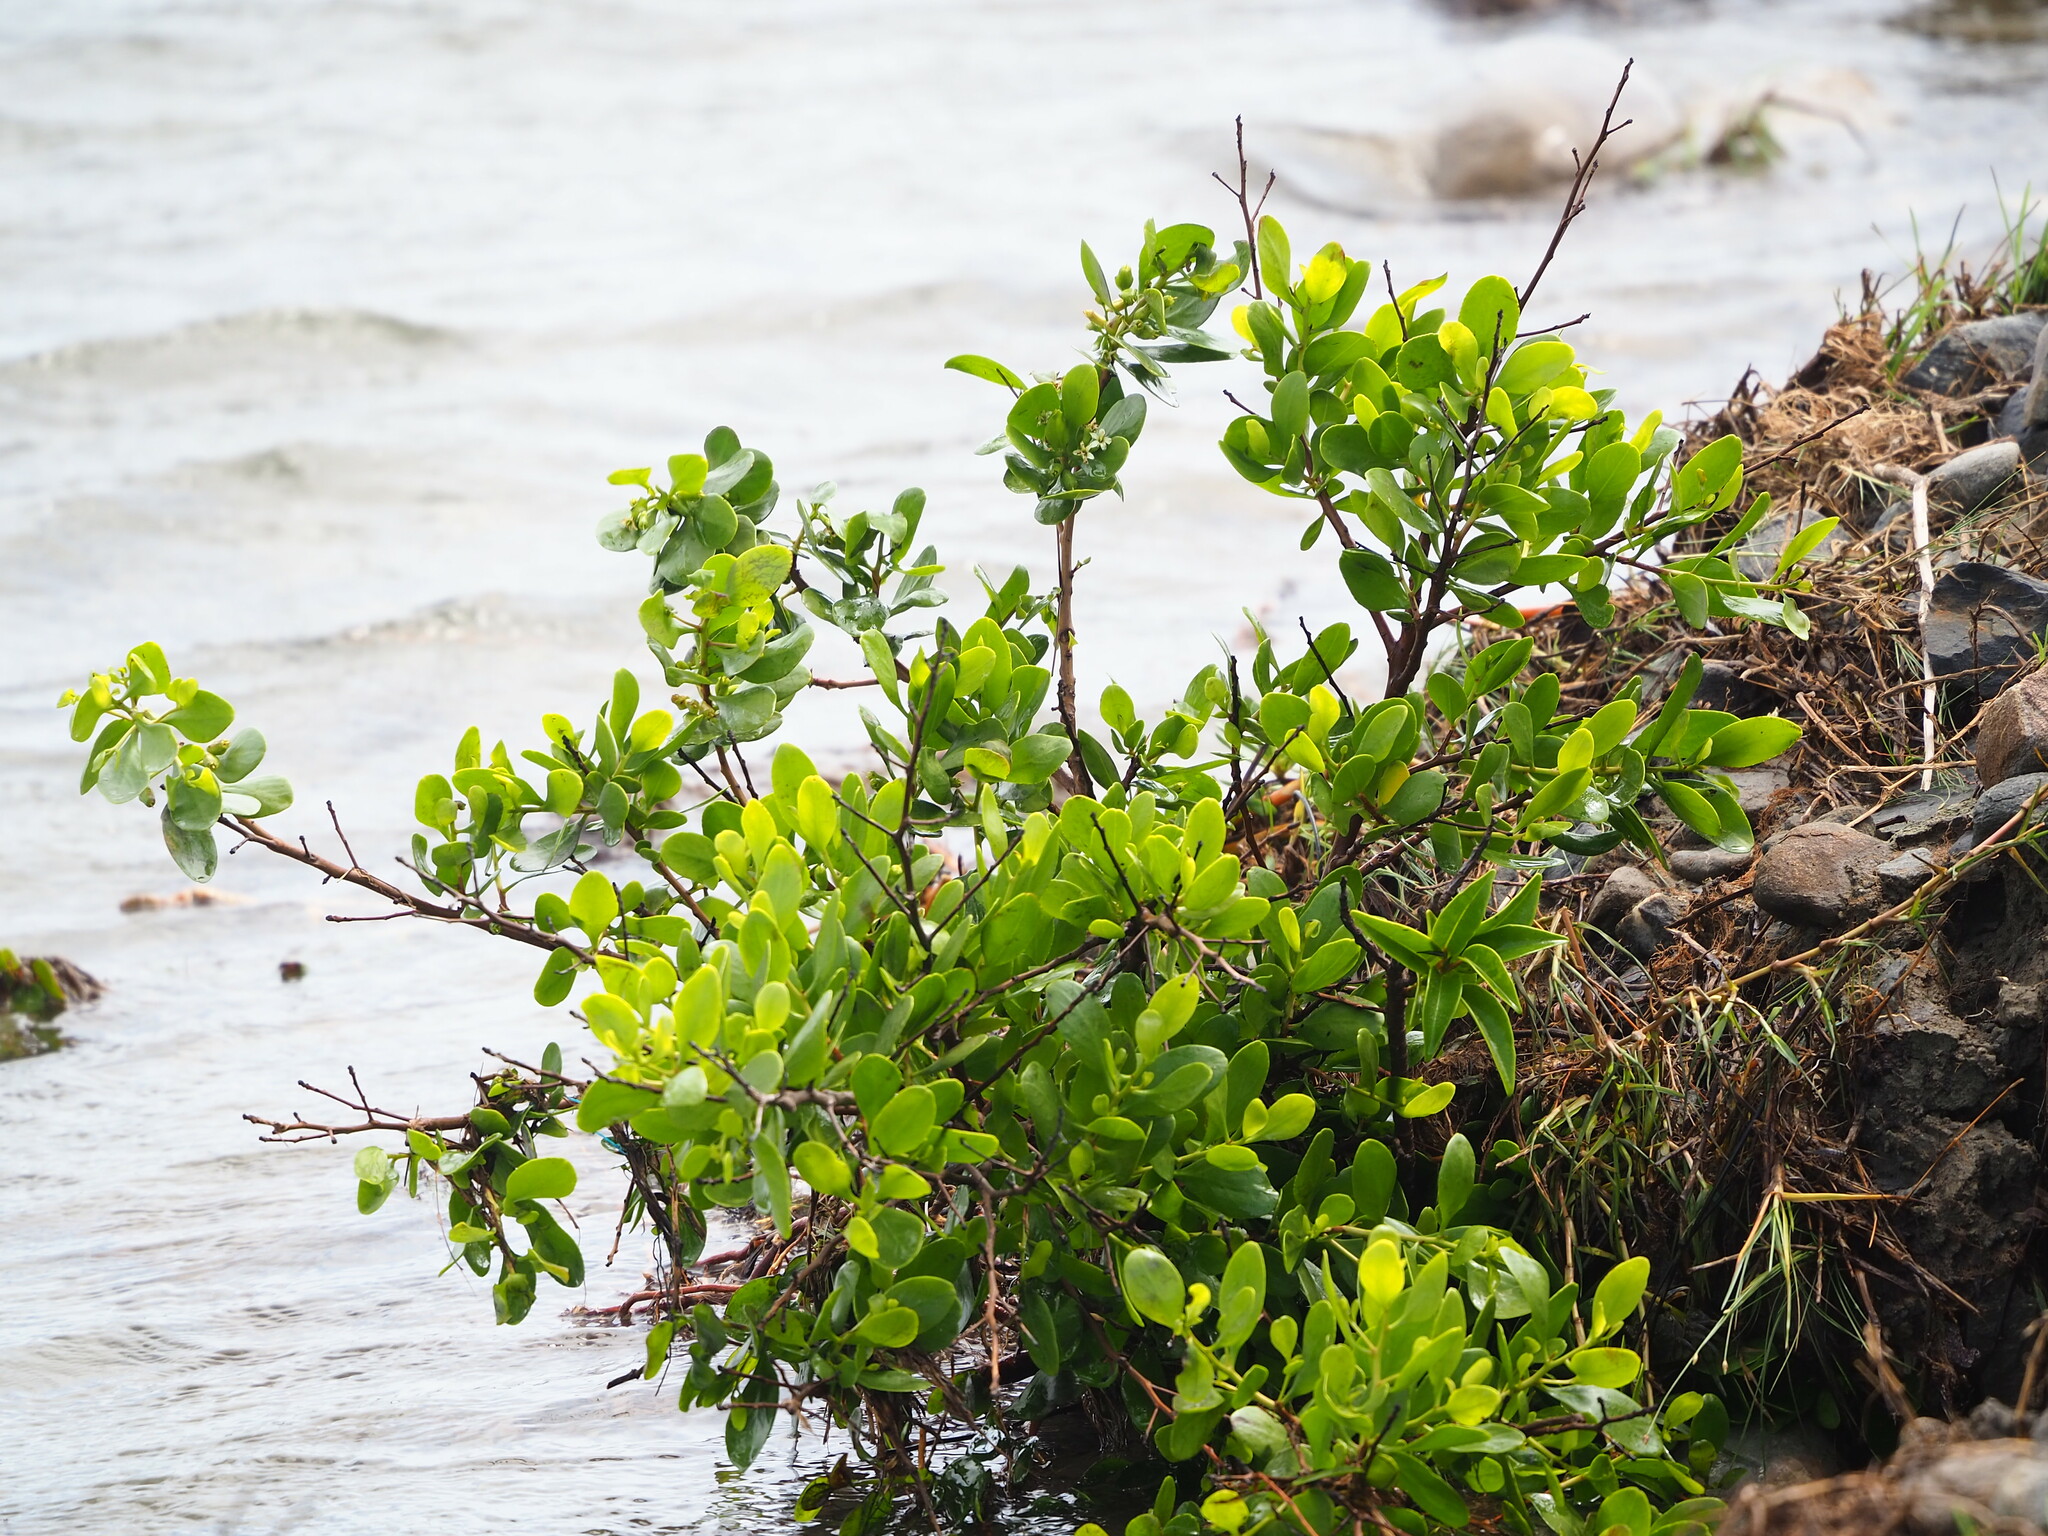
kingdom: Plantae
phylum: Tracheophyta
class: Magnoliopsida
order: Myrtales
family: Combretaceae
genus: Lumnitzera
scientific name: Lumnitzera racemosa
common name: White-flowered black mangrove
